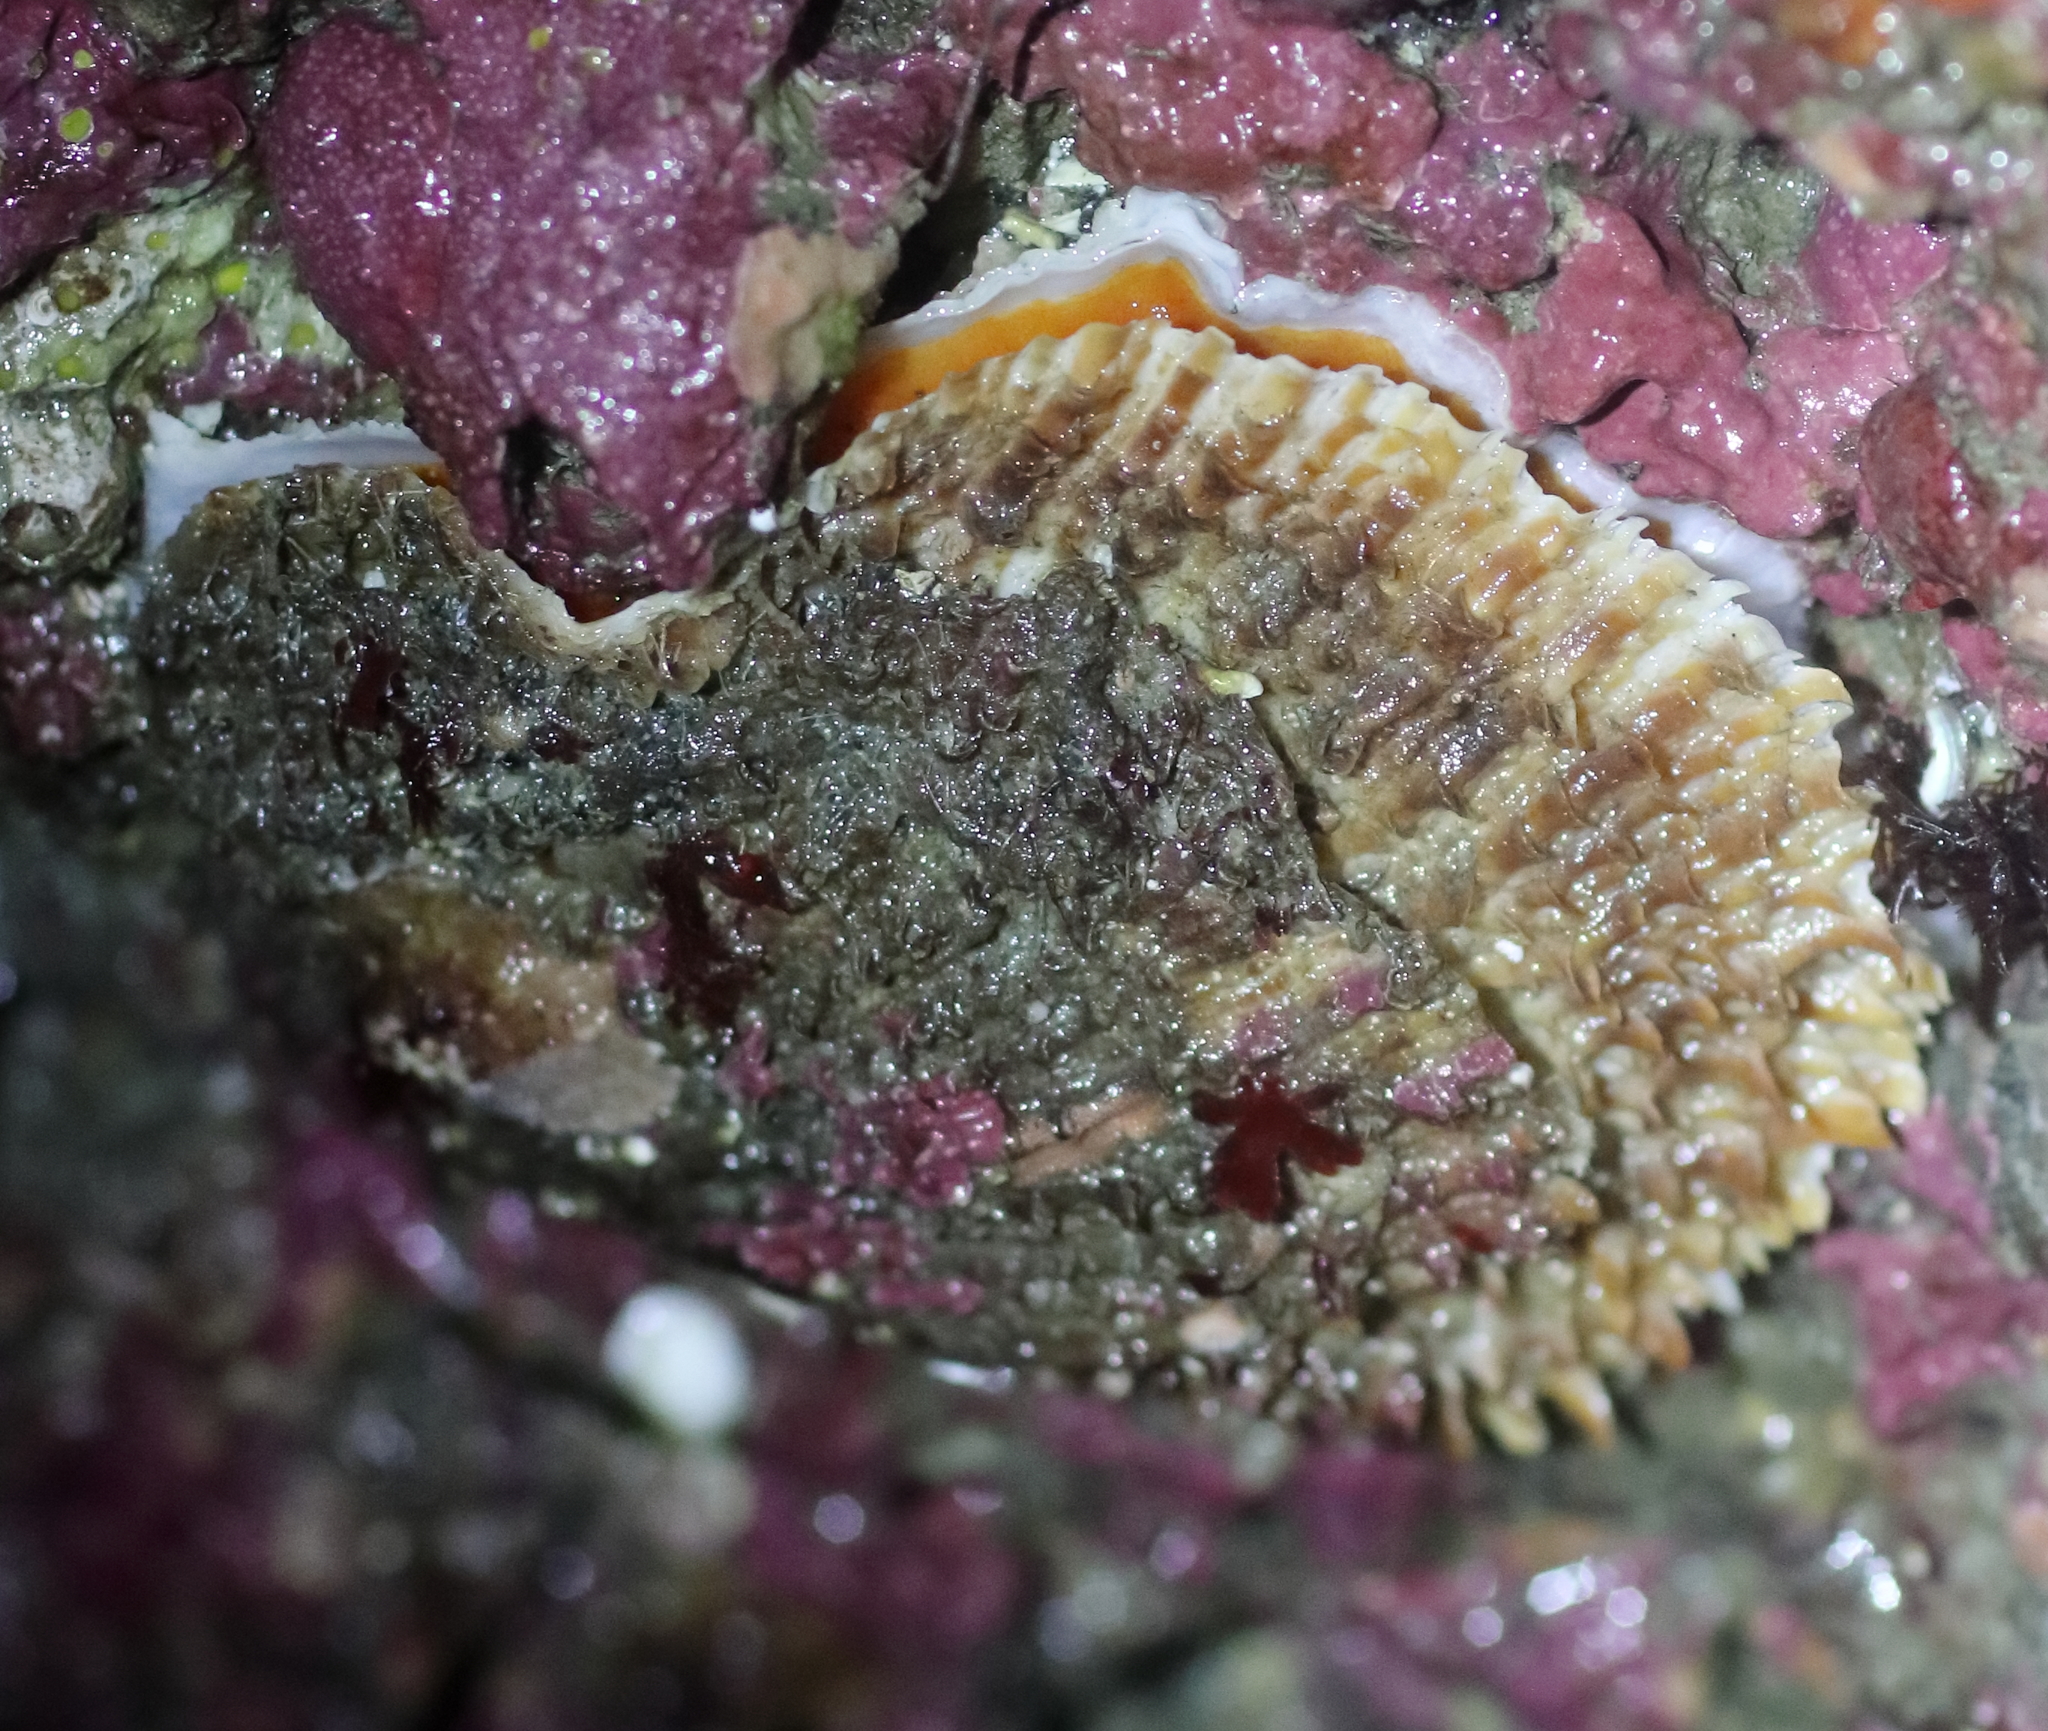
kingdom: Animalia
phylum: Mollusca
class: Bivalvia
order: Pectinida
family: Pectinidae
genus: Crassadoma
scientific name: Crassadoma gigantea
